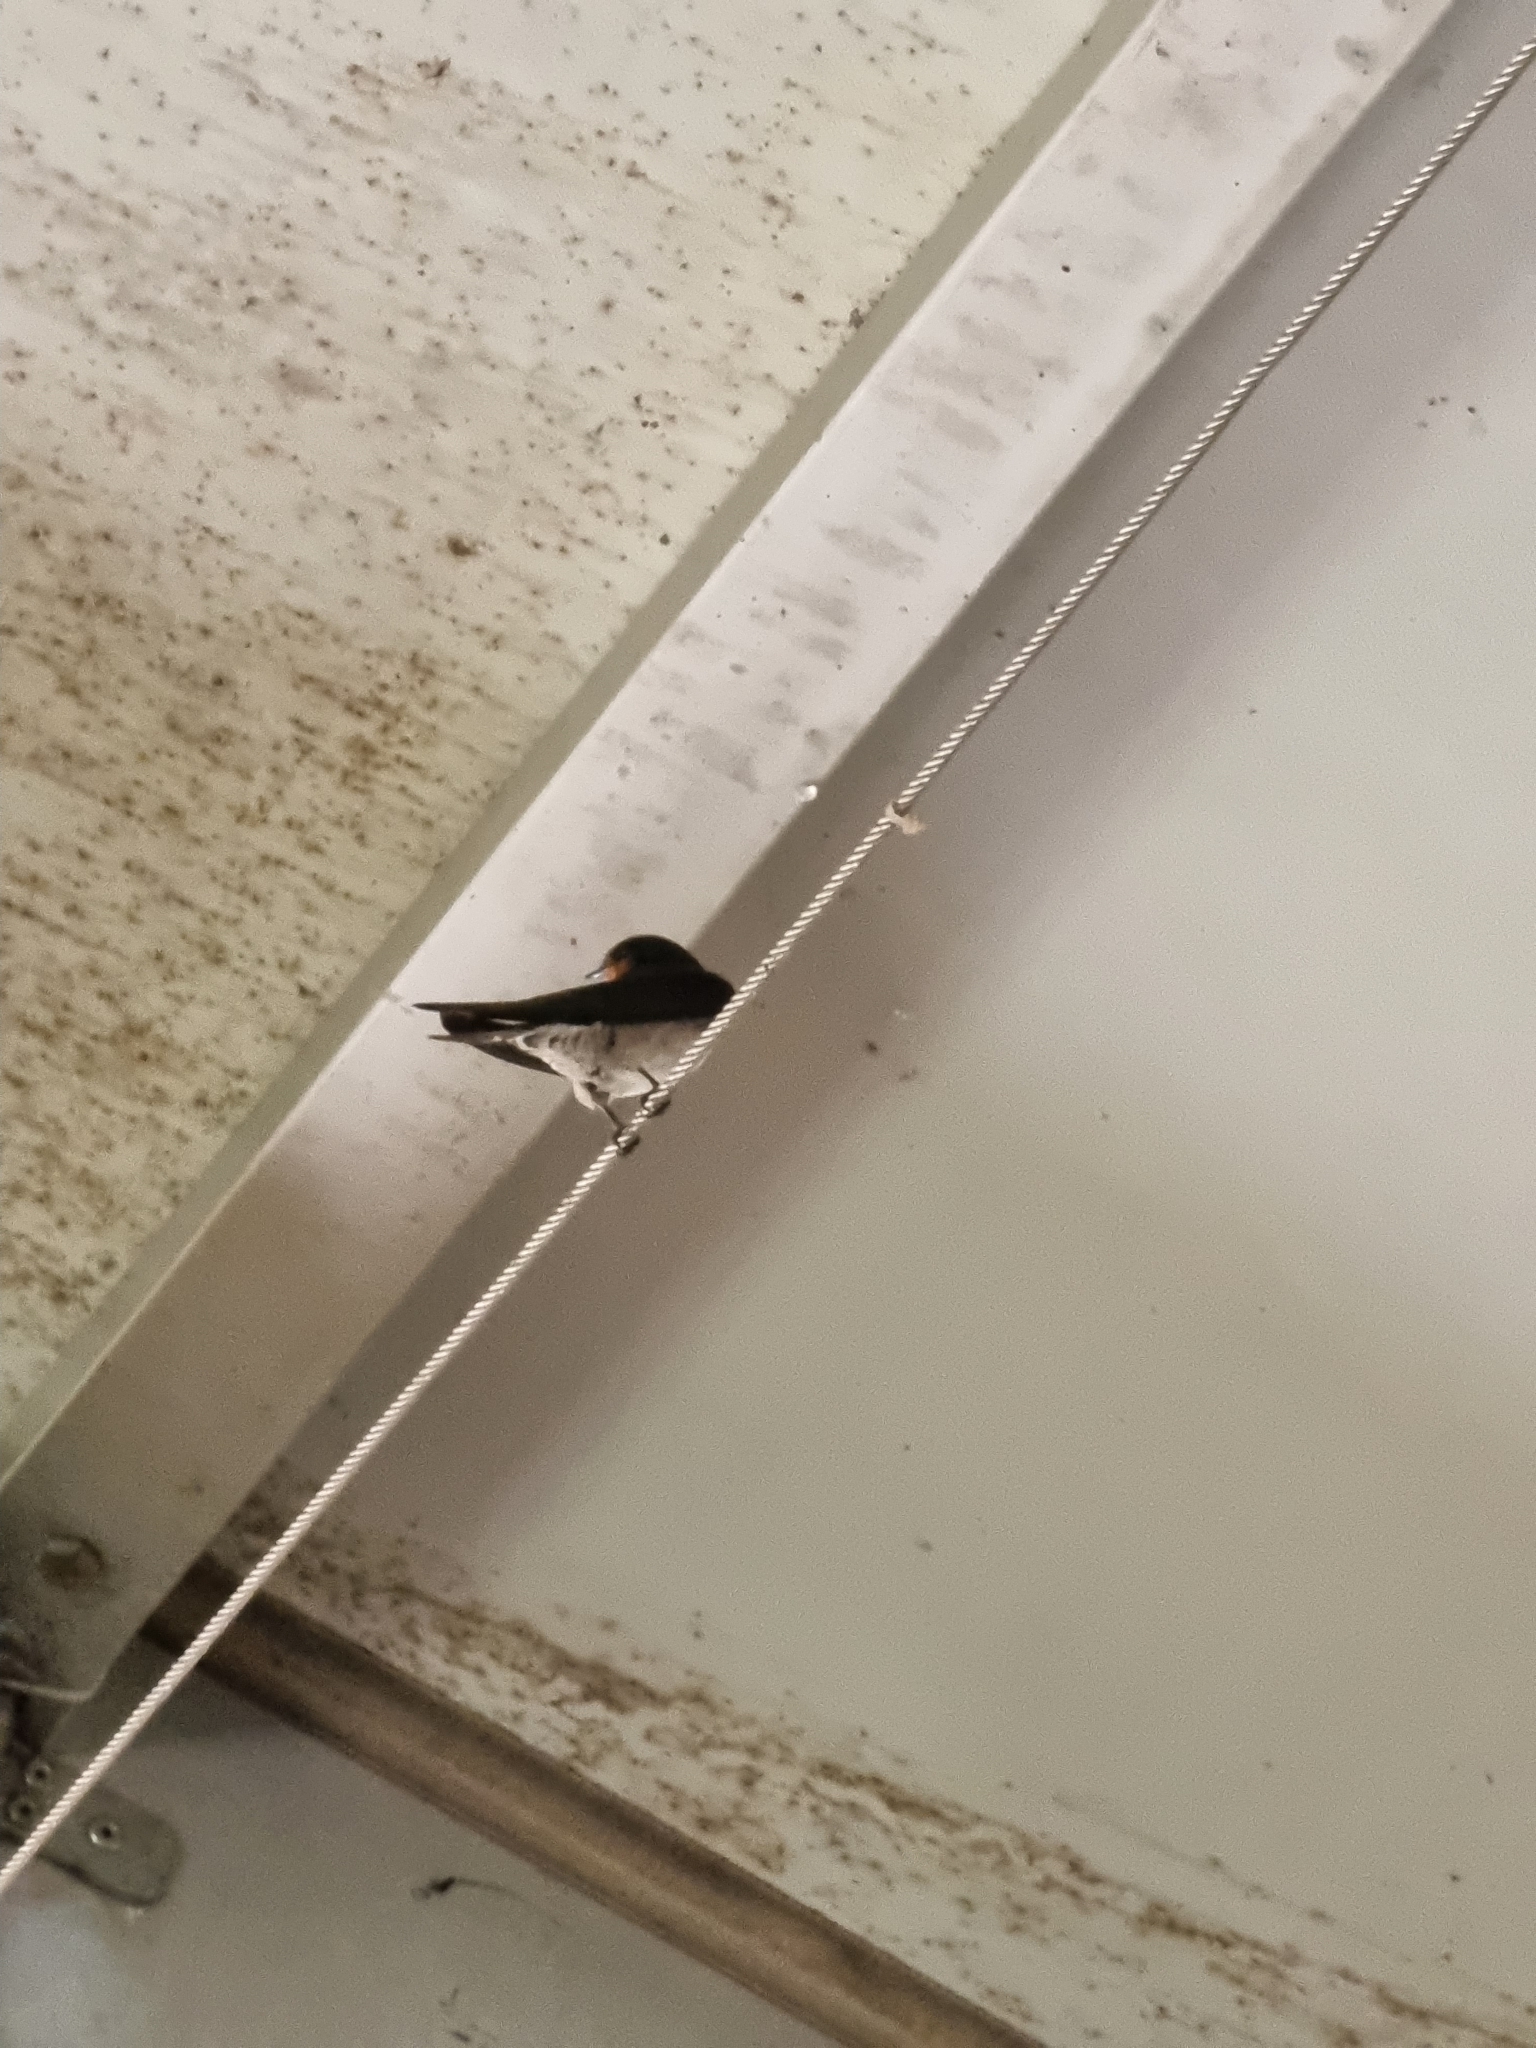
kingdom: Animalia
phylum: Chordata
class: Aves
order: Passeriformes
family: Hirundinidae
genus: Hirundo
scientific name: Hirundo neoxena
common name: Welcome swallow
